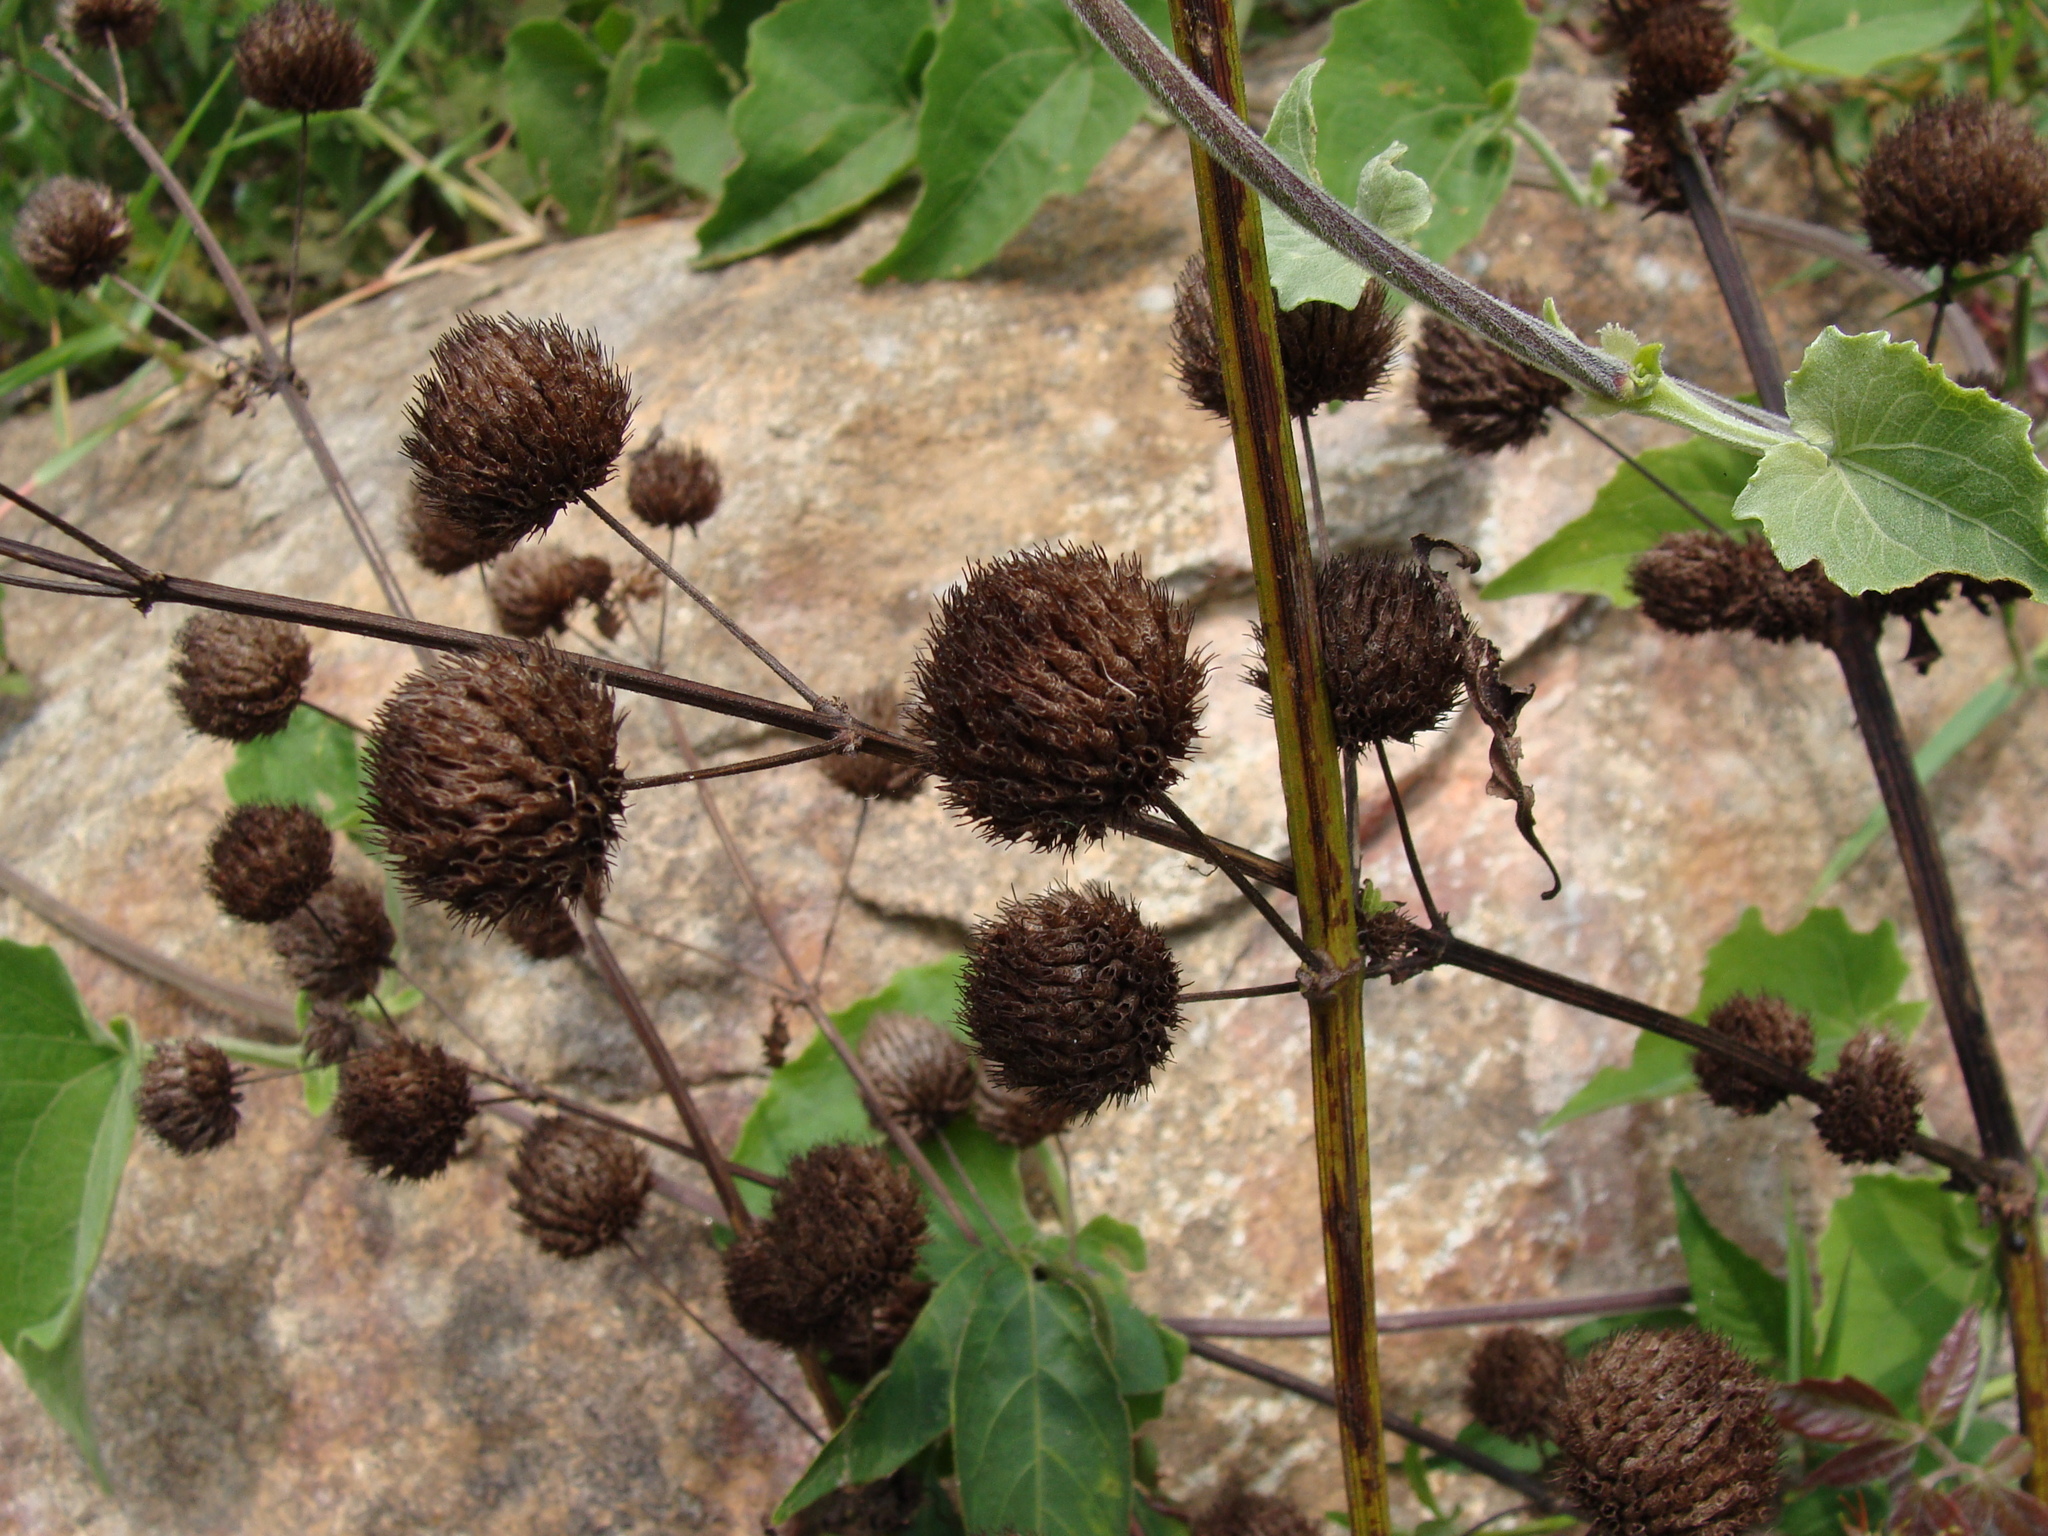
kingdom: Plantae
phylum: Tracheophyta
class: Magnoliopsida
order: Lamiales
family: Lamiaceae
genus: Hyptis
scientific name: Hyptis capitata
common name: False ironwort
